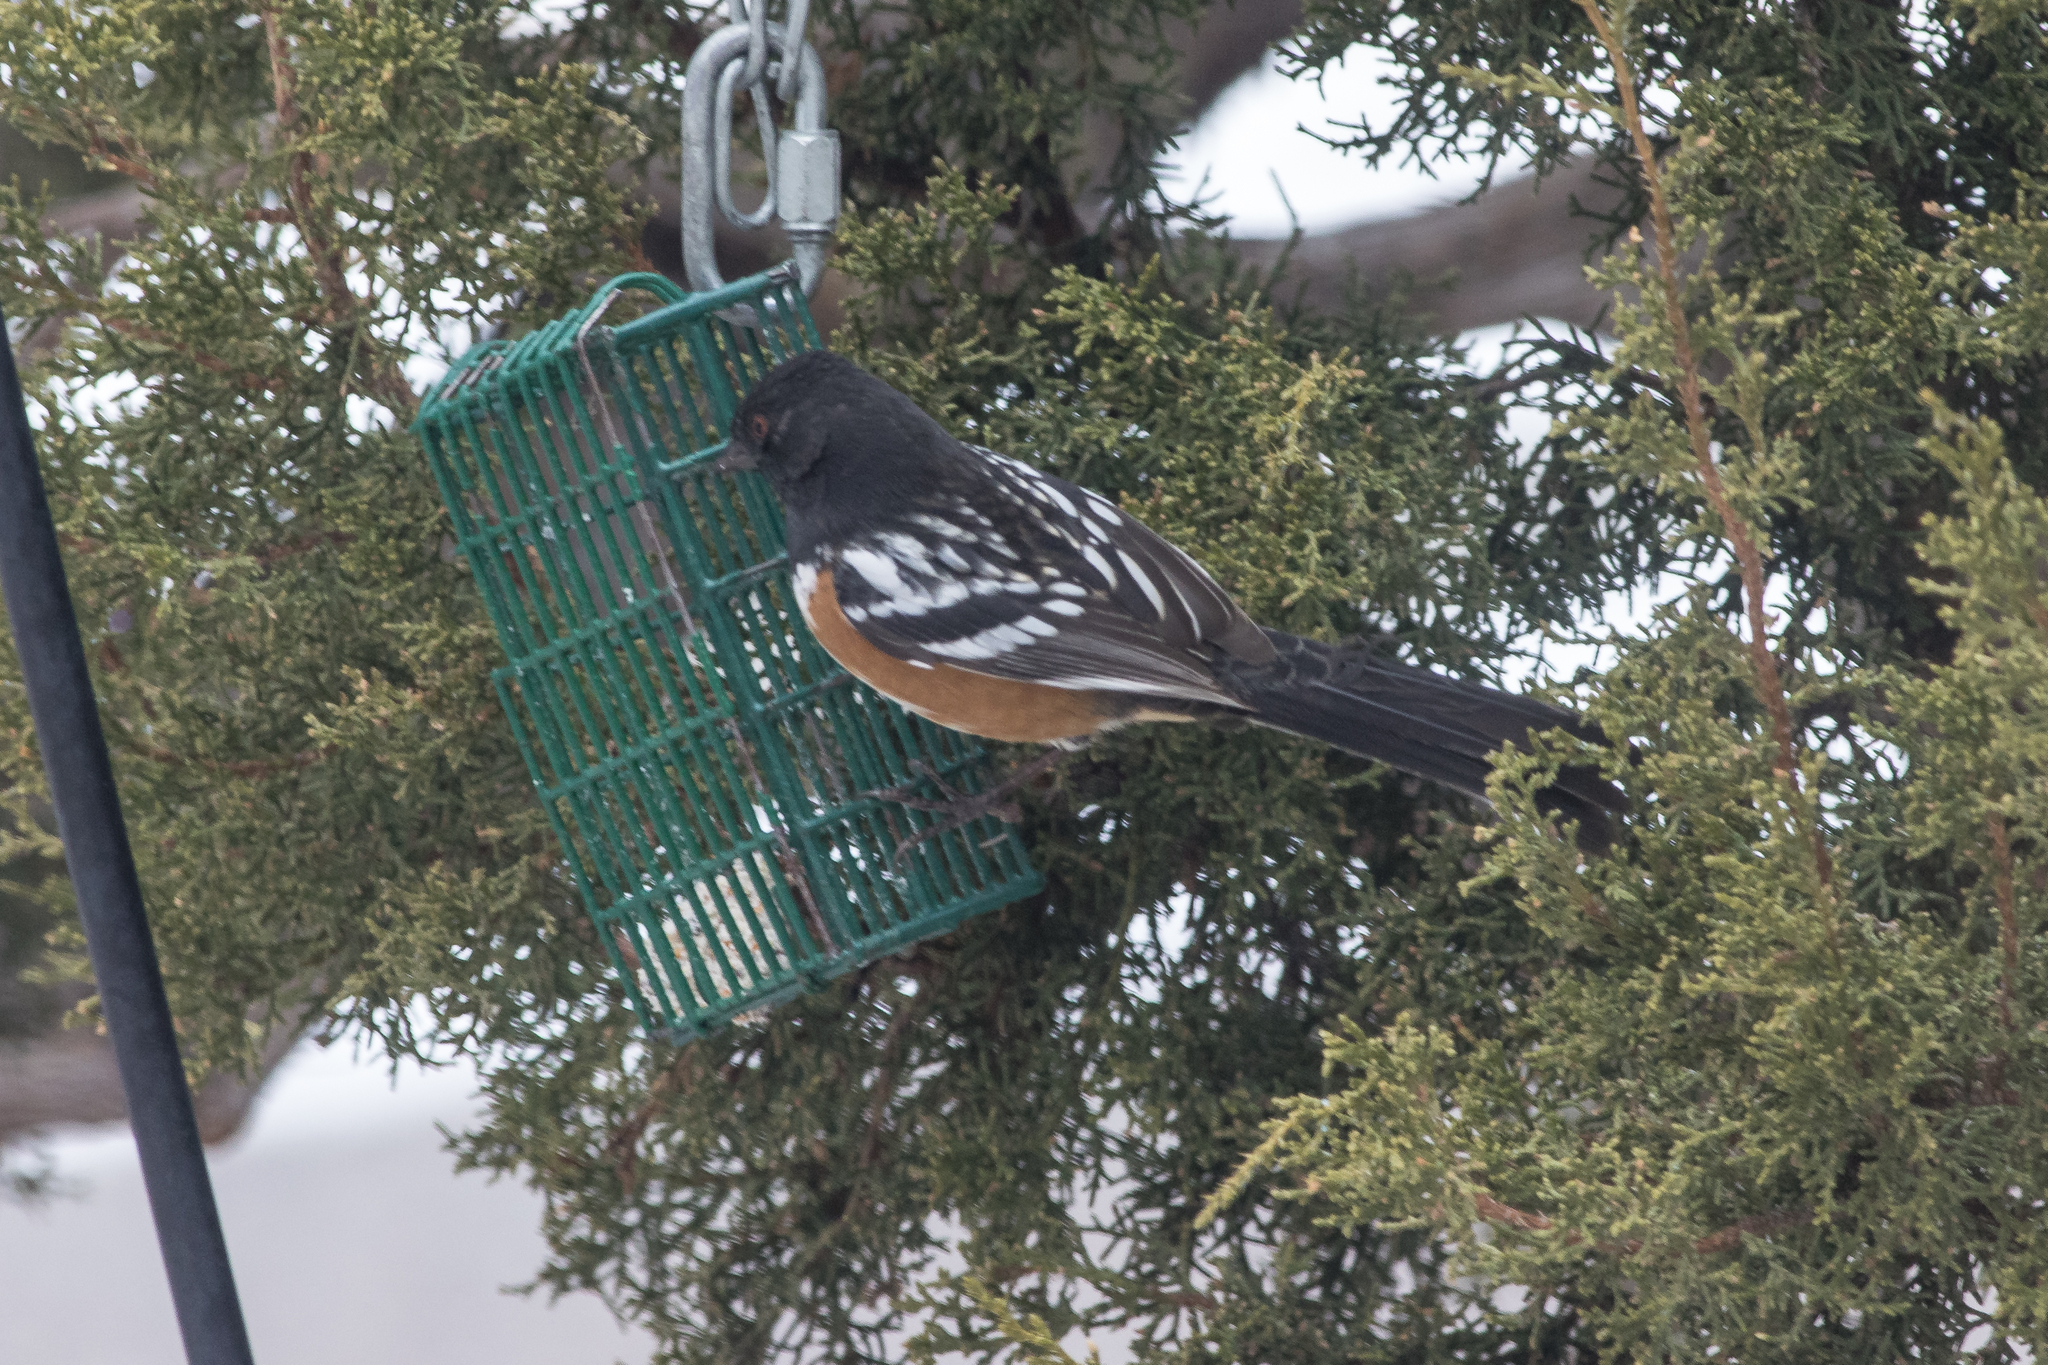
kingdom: Animalia
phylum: Chordata
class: Aves
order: Passeriformes
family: Passerellidae
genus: Pipilo
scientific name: Pipilo maculatus
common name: Spotted towhee
